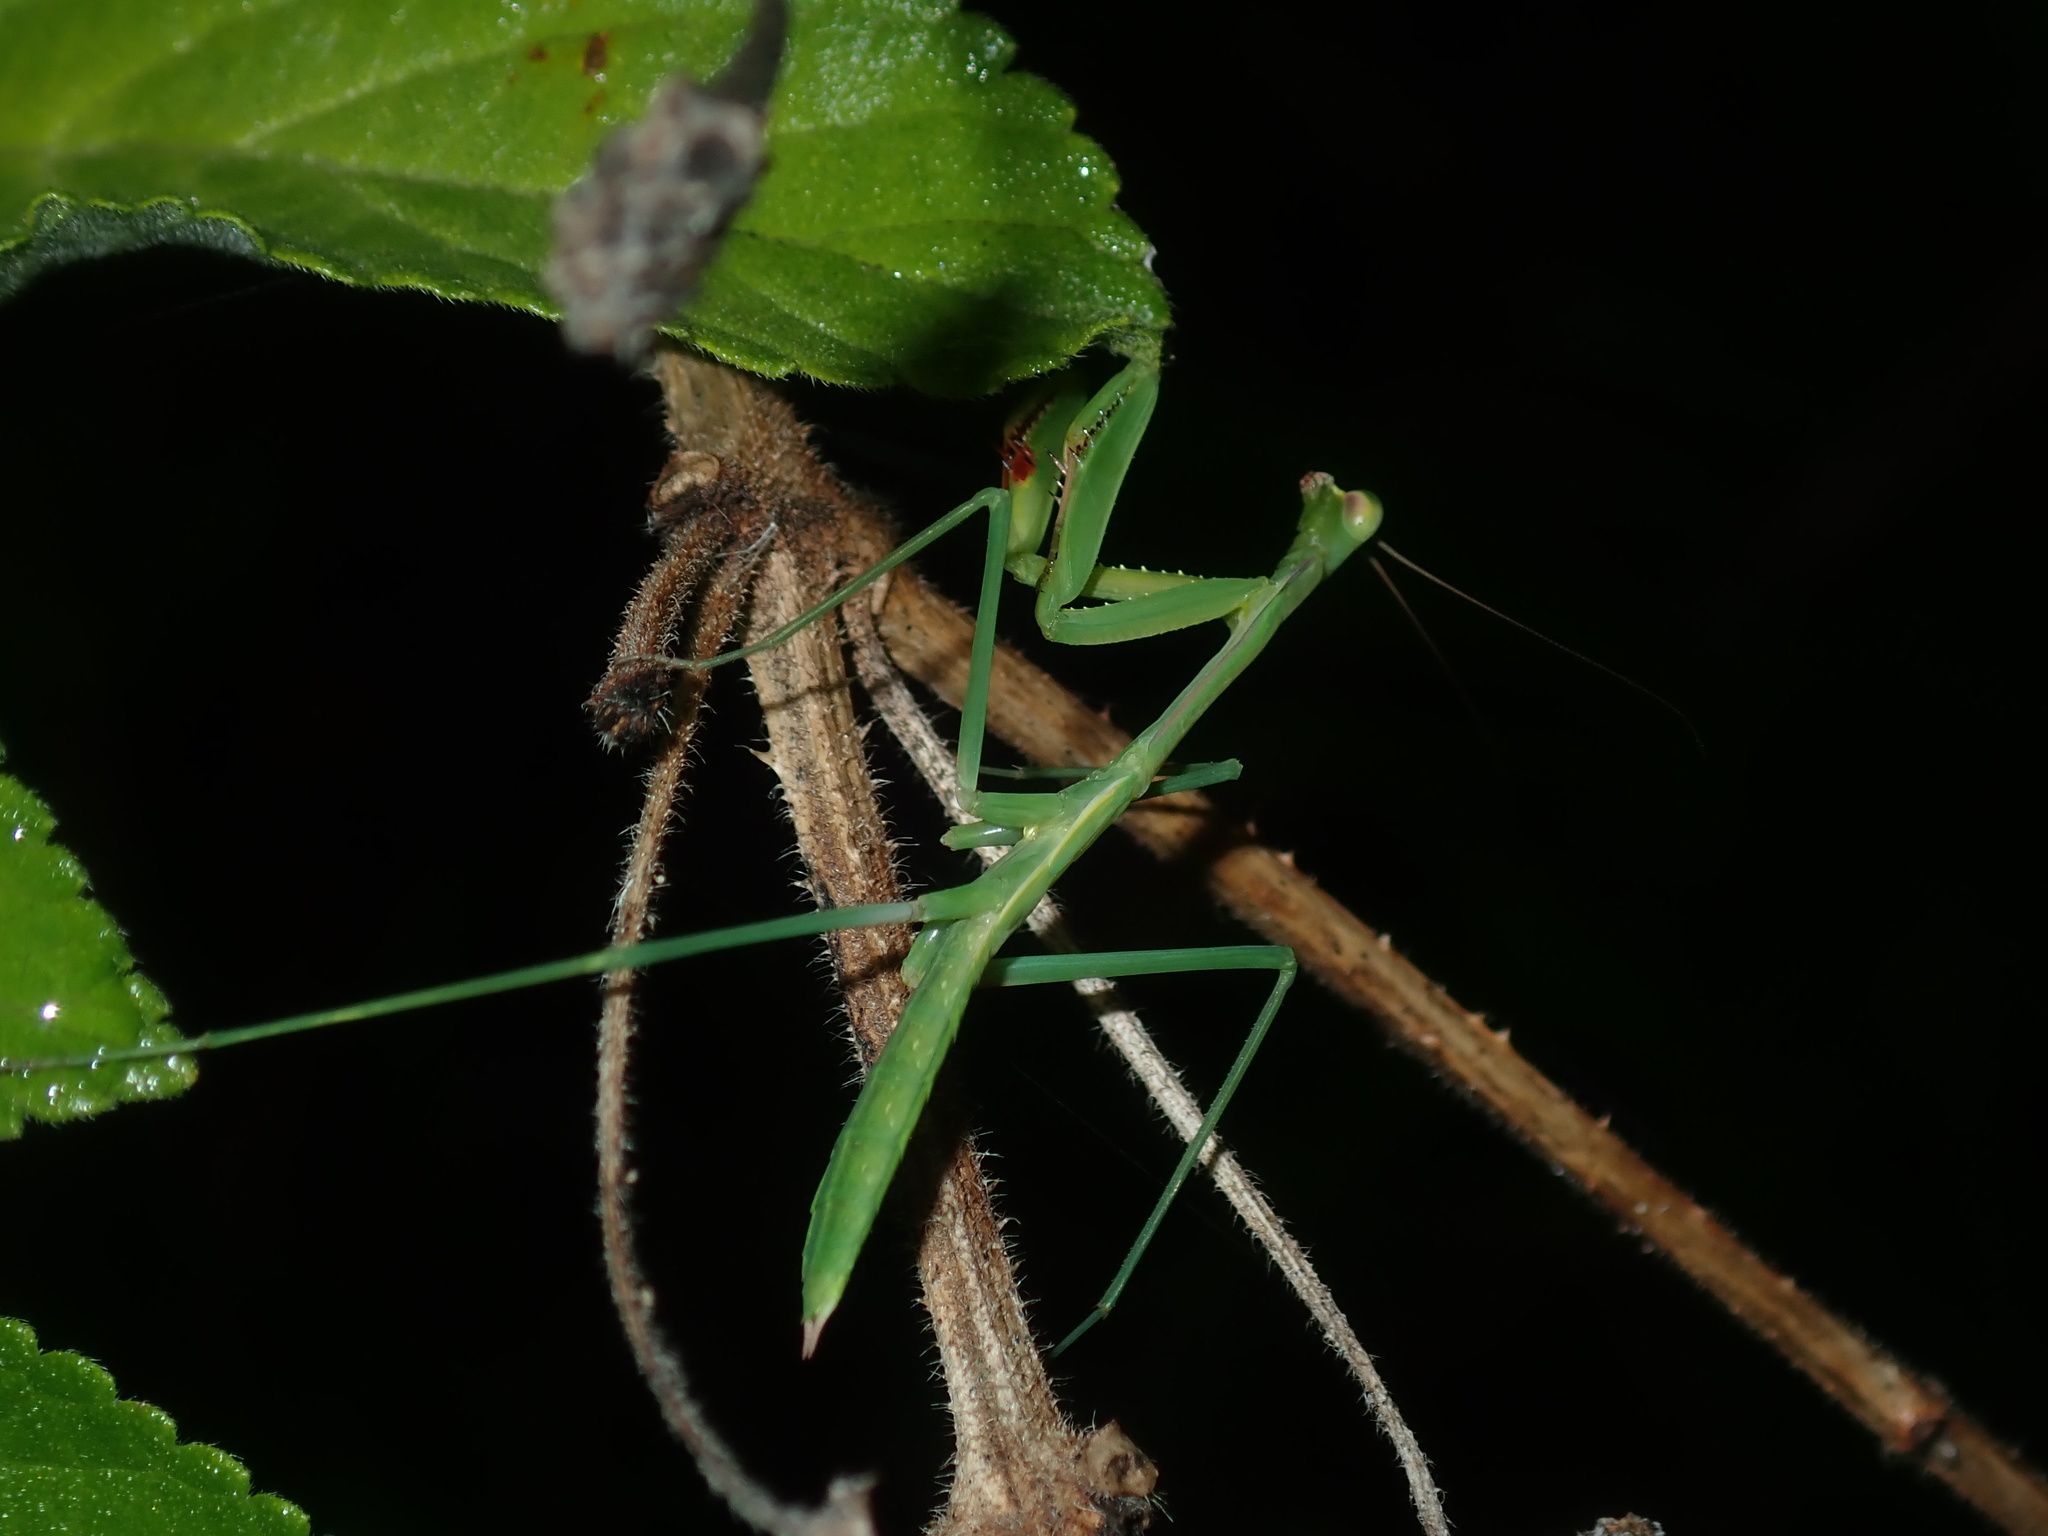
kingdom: Animalia
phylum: Arthropoda
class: Insecta
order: Mantodea
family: Mantidae
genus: Pseudomantis
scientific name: Pseudomantis albofimbriata
